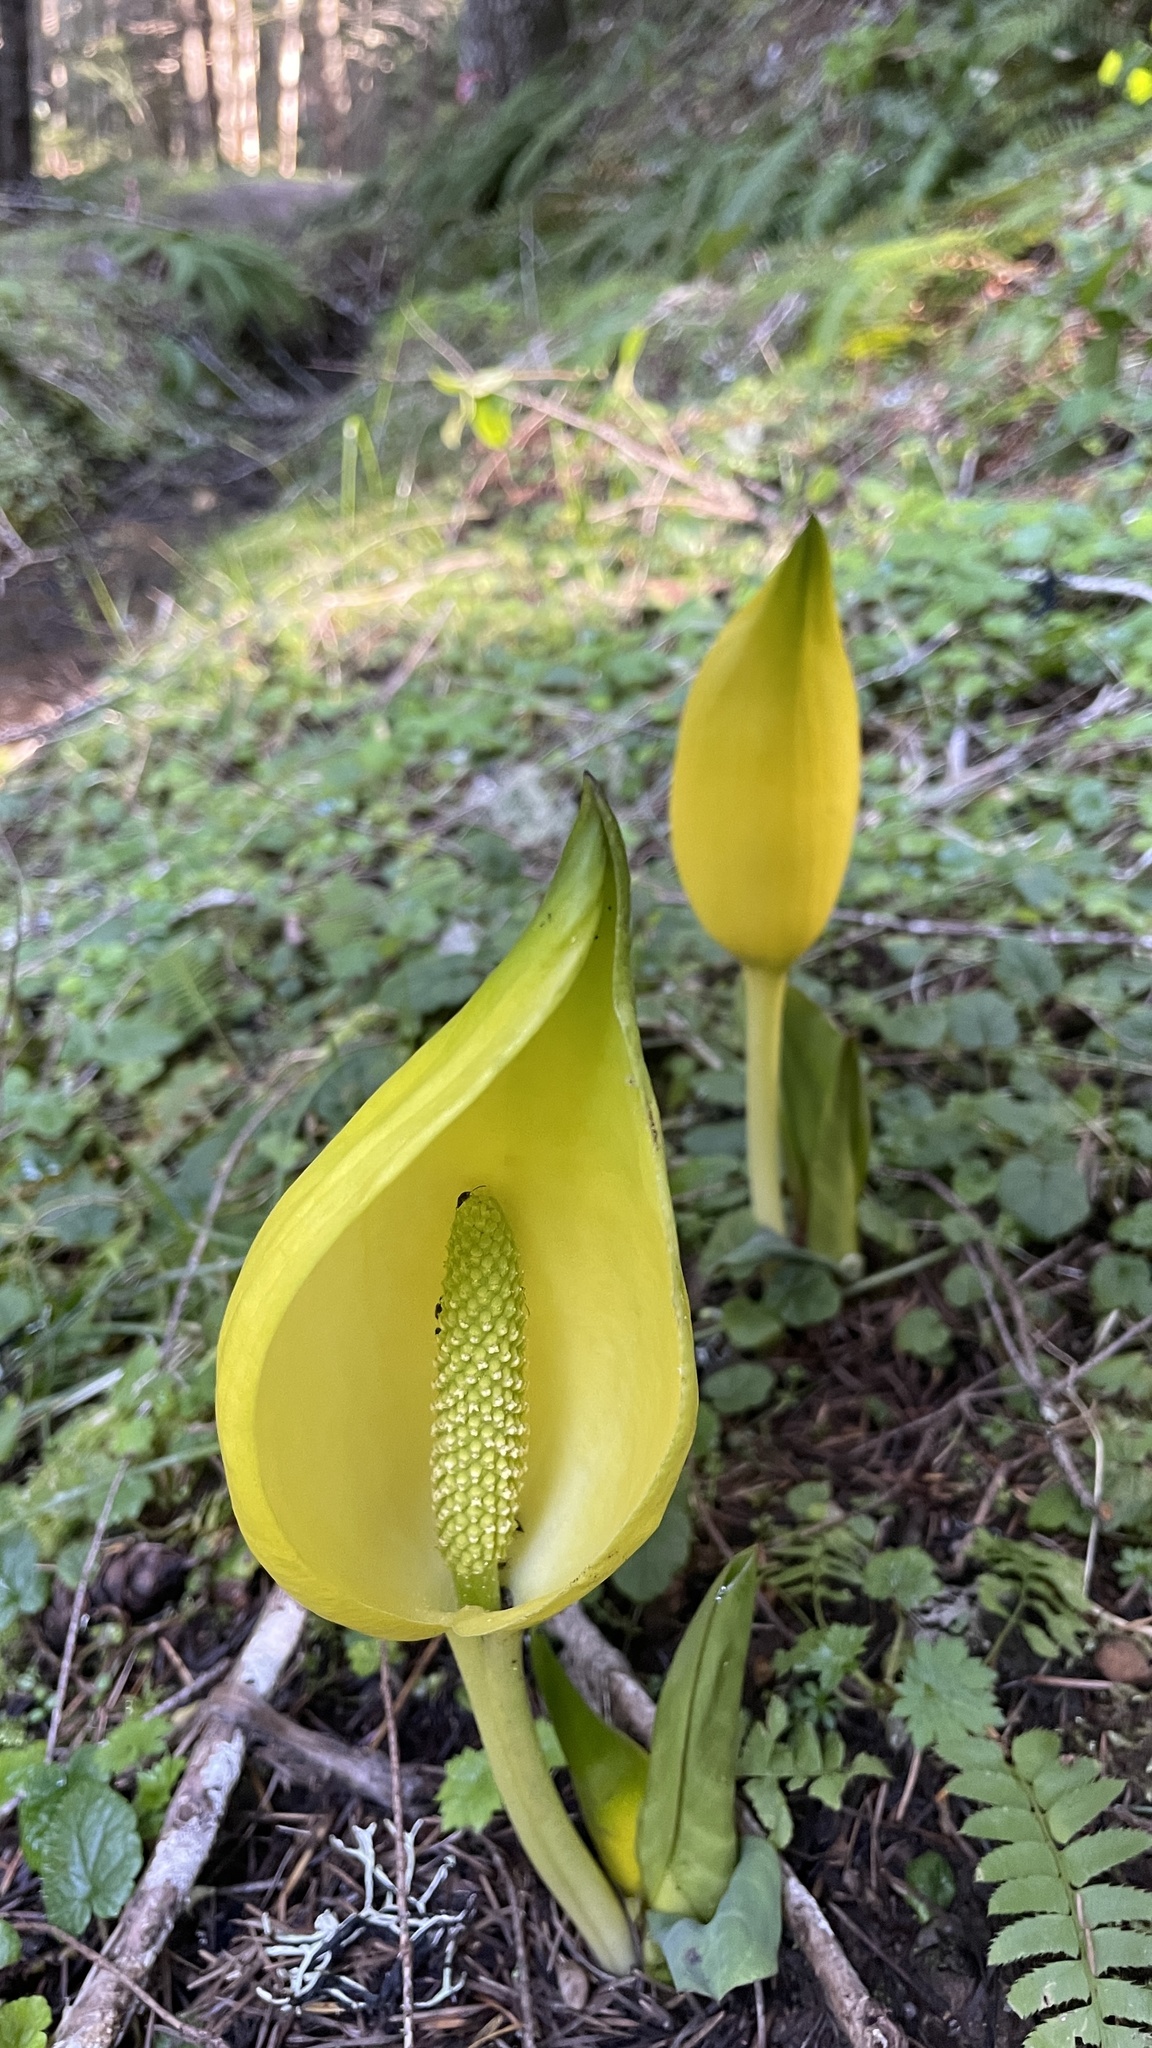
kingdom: Plantae
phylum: Tracheophyta
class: Liliopsida
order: Alismatales
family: Araceae
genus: Lysichiton
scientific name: Lysichiton americanus
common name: American skunk cabbage
